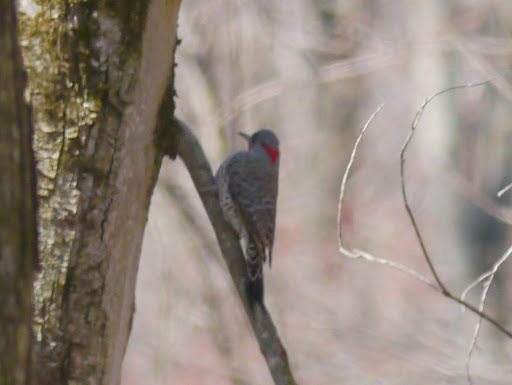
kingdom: Animalia
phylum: Chordata
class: Aves
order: Piciformes
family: Picidae
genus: Colaptes
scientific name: Colaptes auratus
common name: Northern flicker
